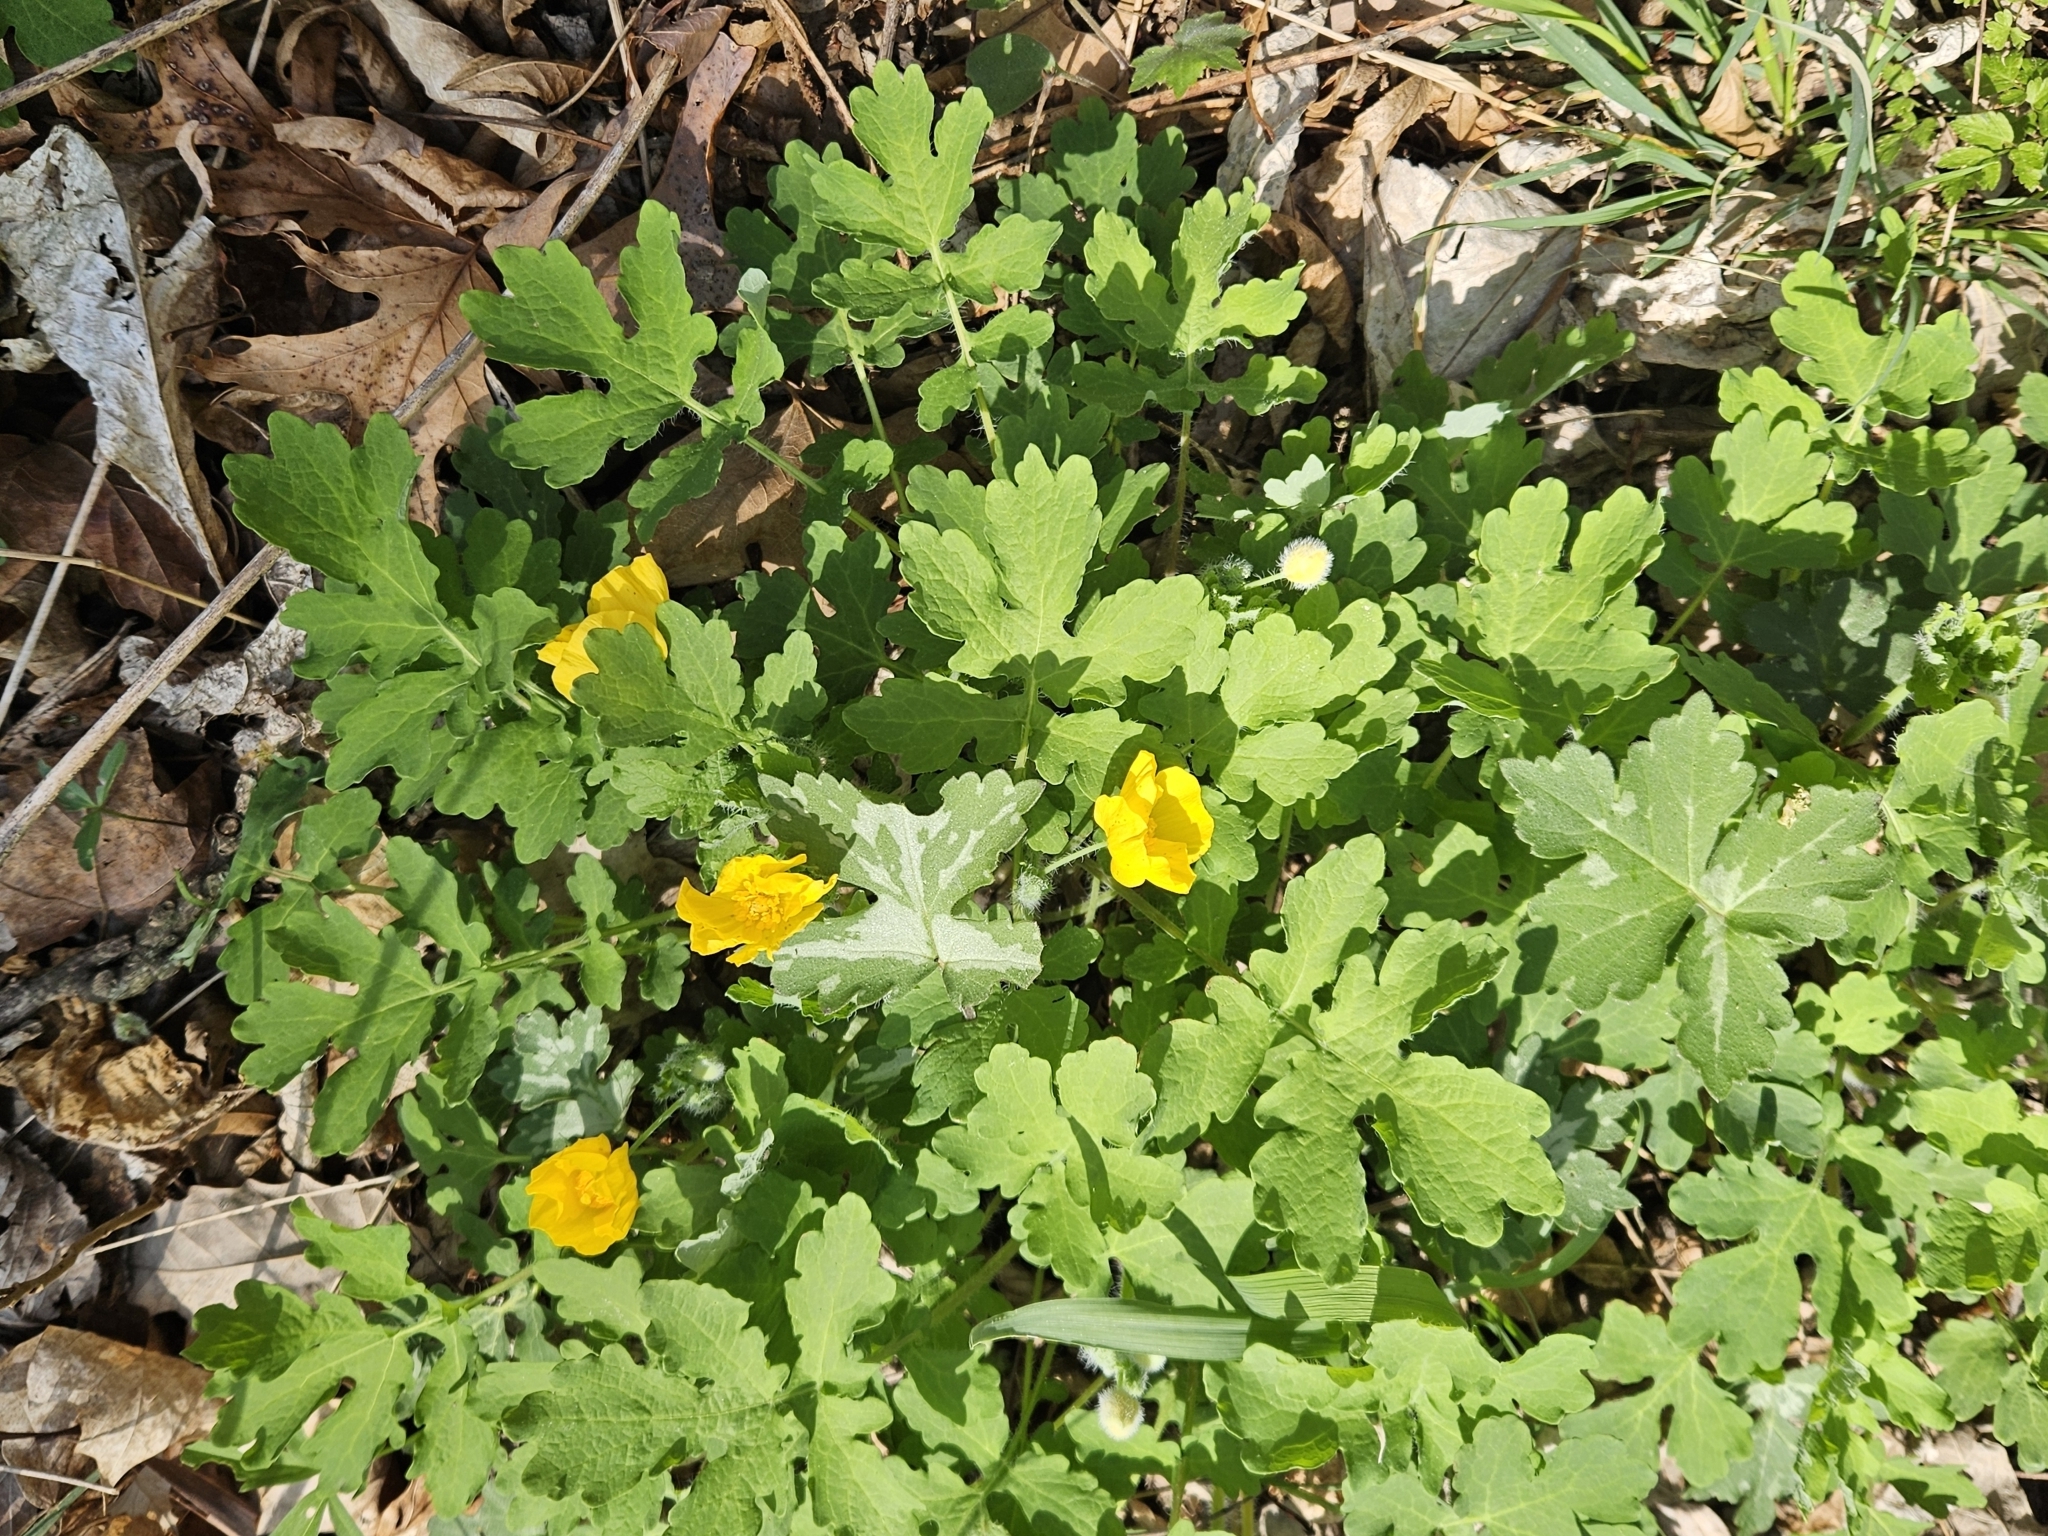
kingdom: Plantae
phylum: Tracheophyta
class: Magnoliopsida
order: Ranunculales
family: Papaveraceae
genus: Stylophorum
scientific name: Stylophorum diphyllum
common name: Celandine poppy
